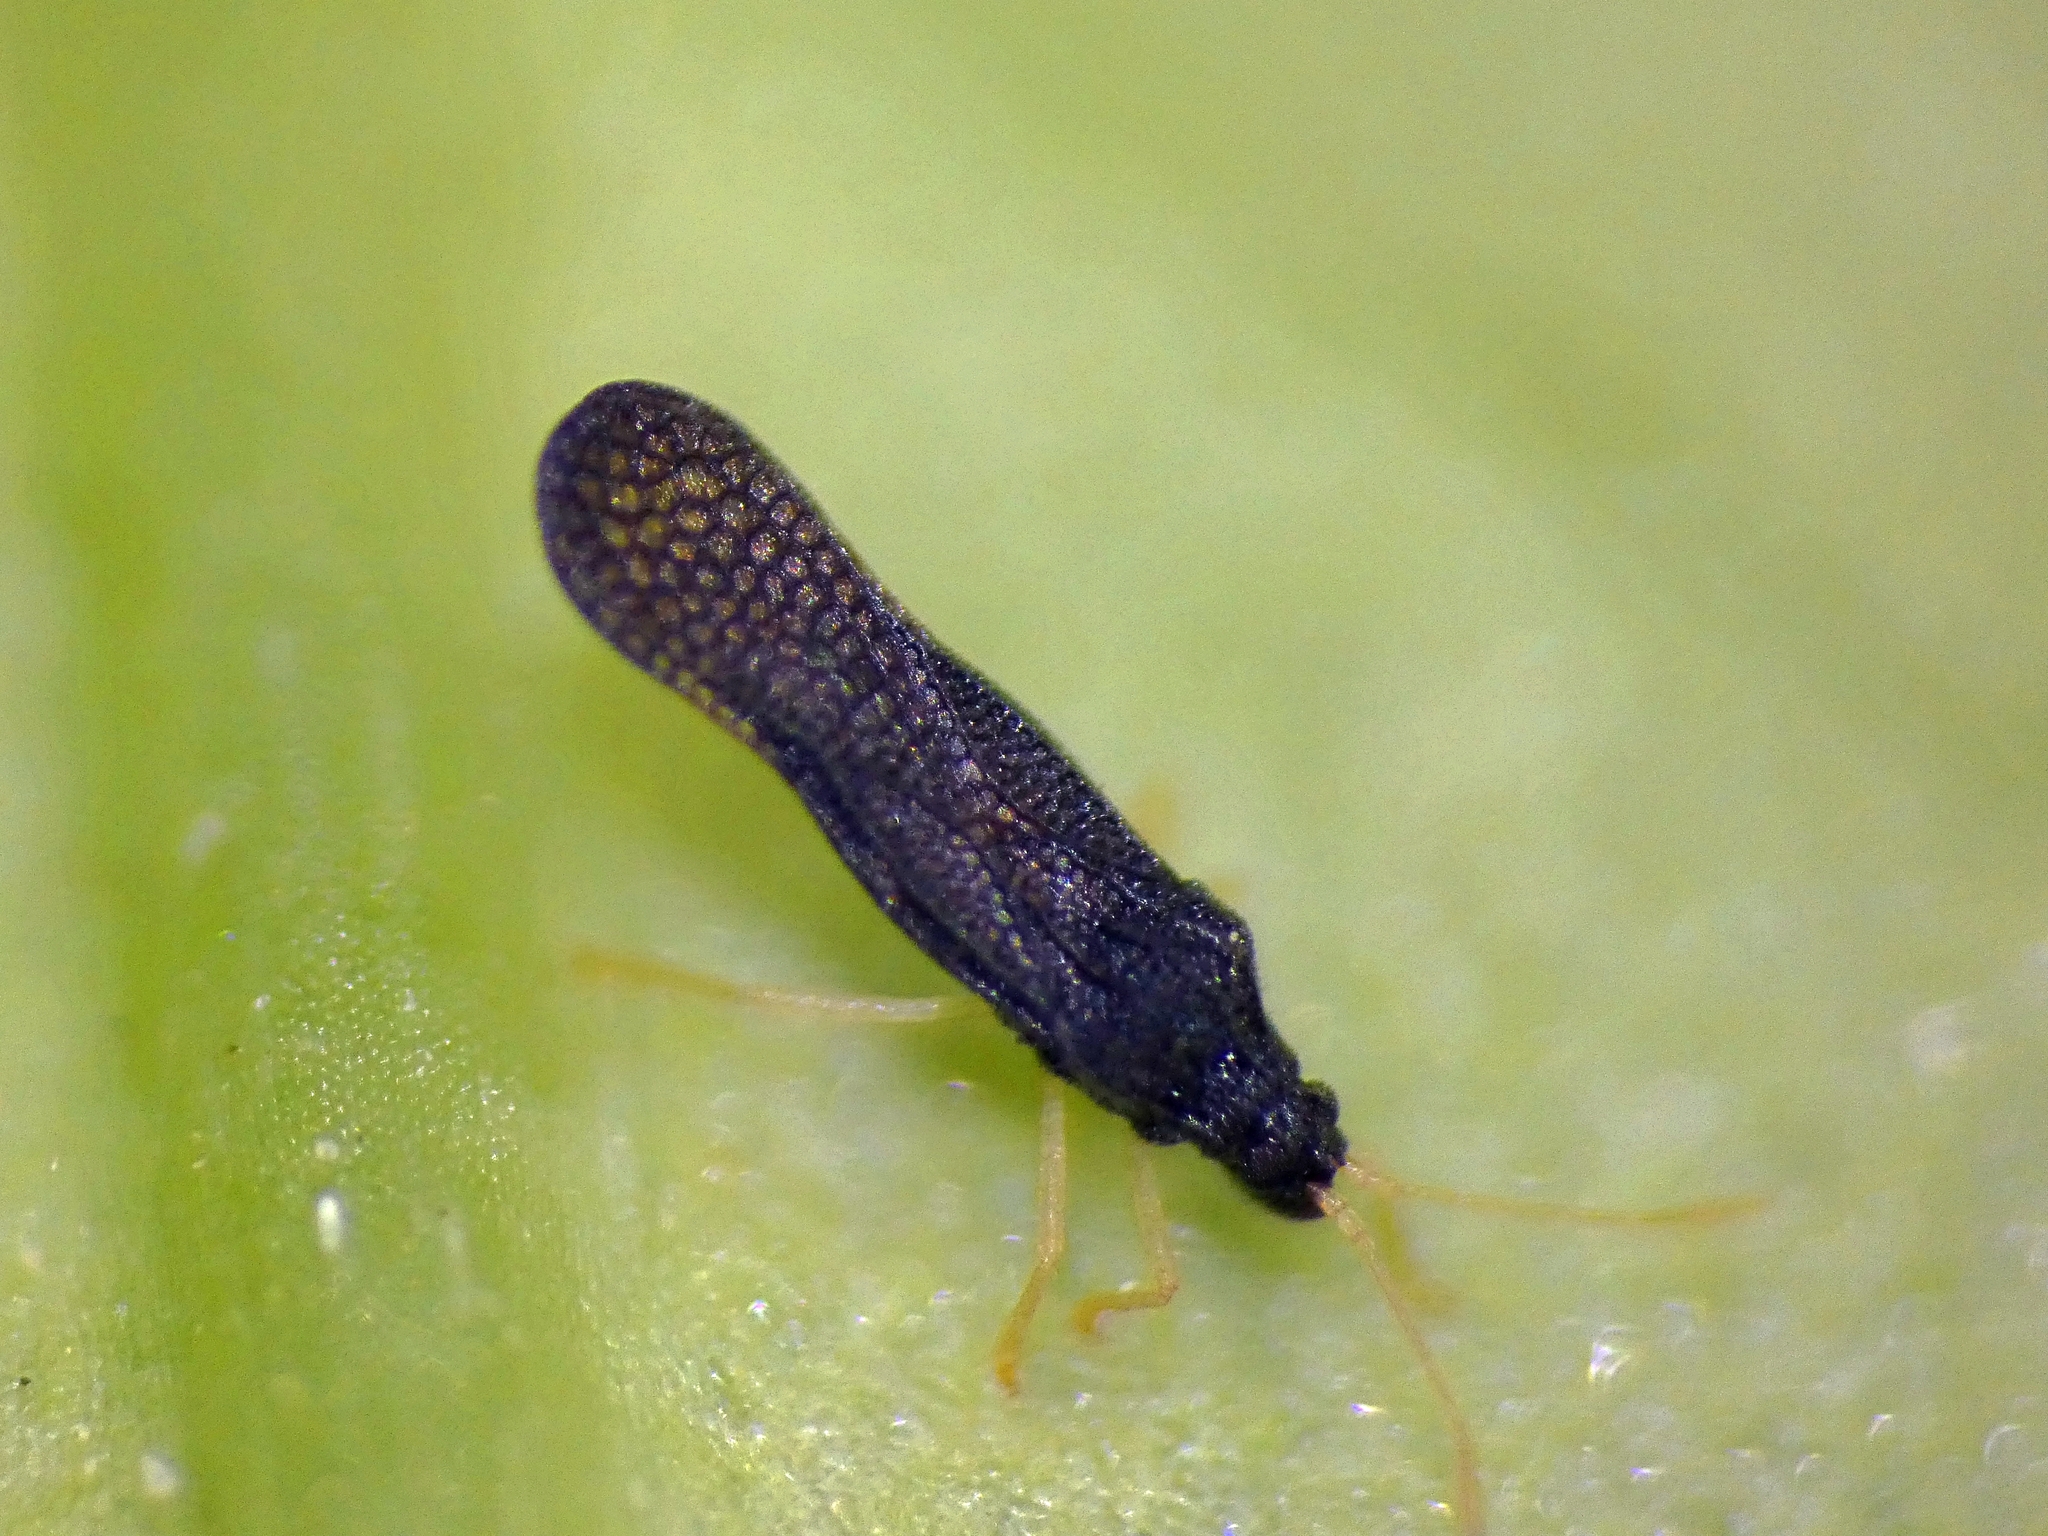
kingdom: Animalia
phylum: Arthropoda
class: Insecta
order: Hemiptera
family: Tingidae
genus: Larotingis
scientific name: Larotingis aporia
